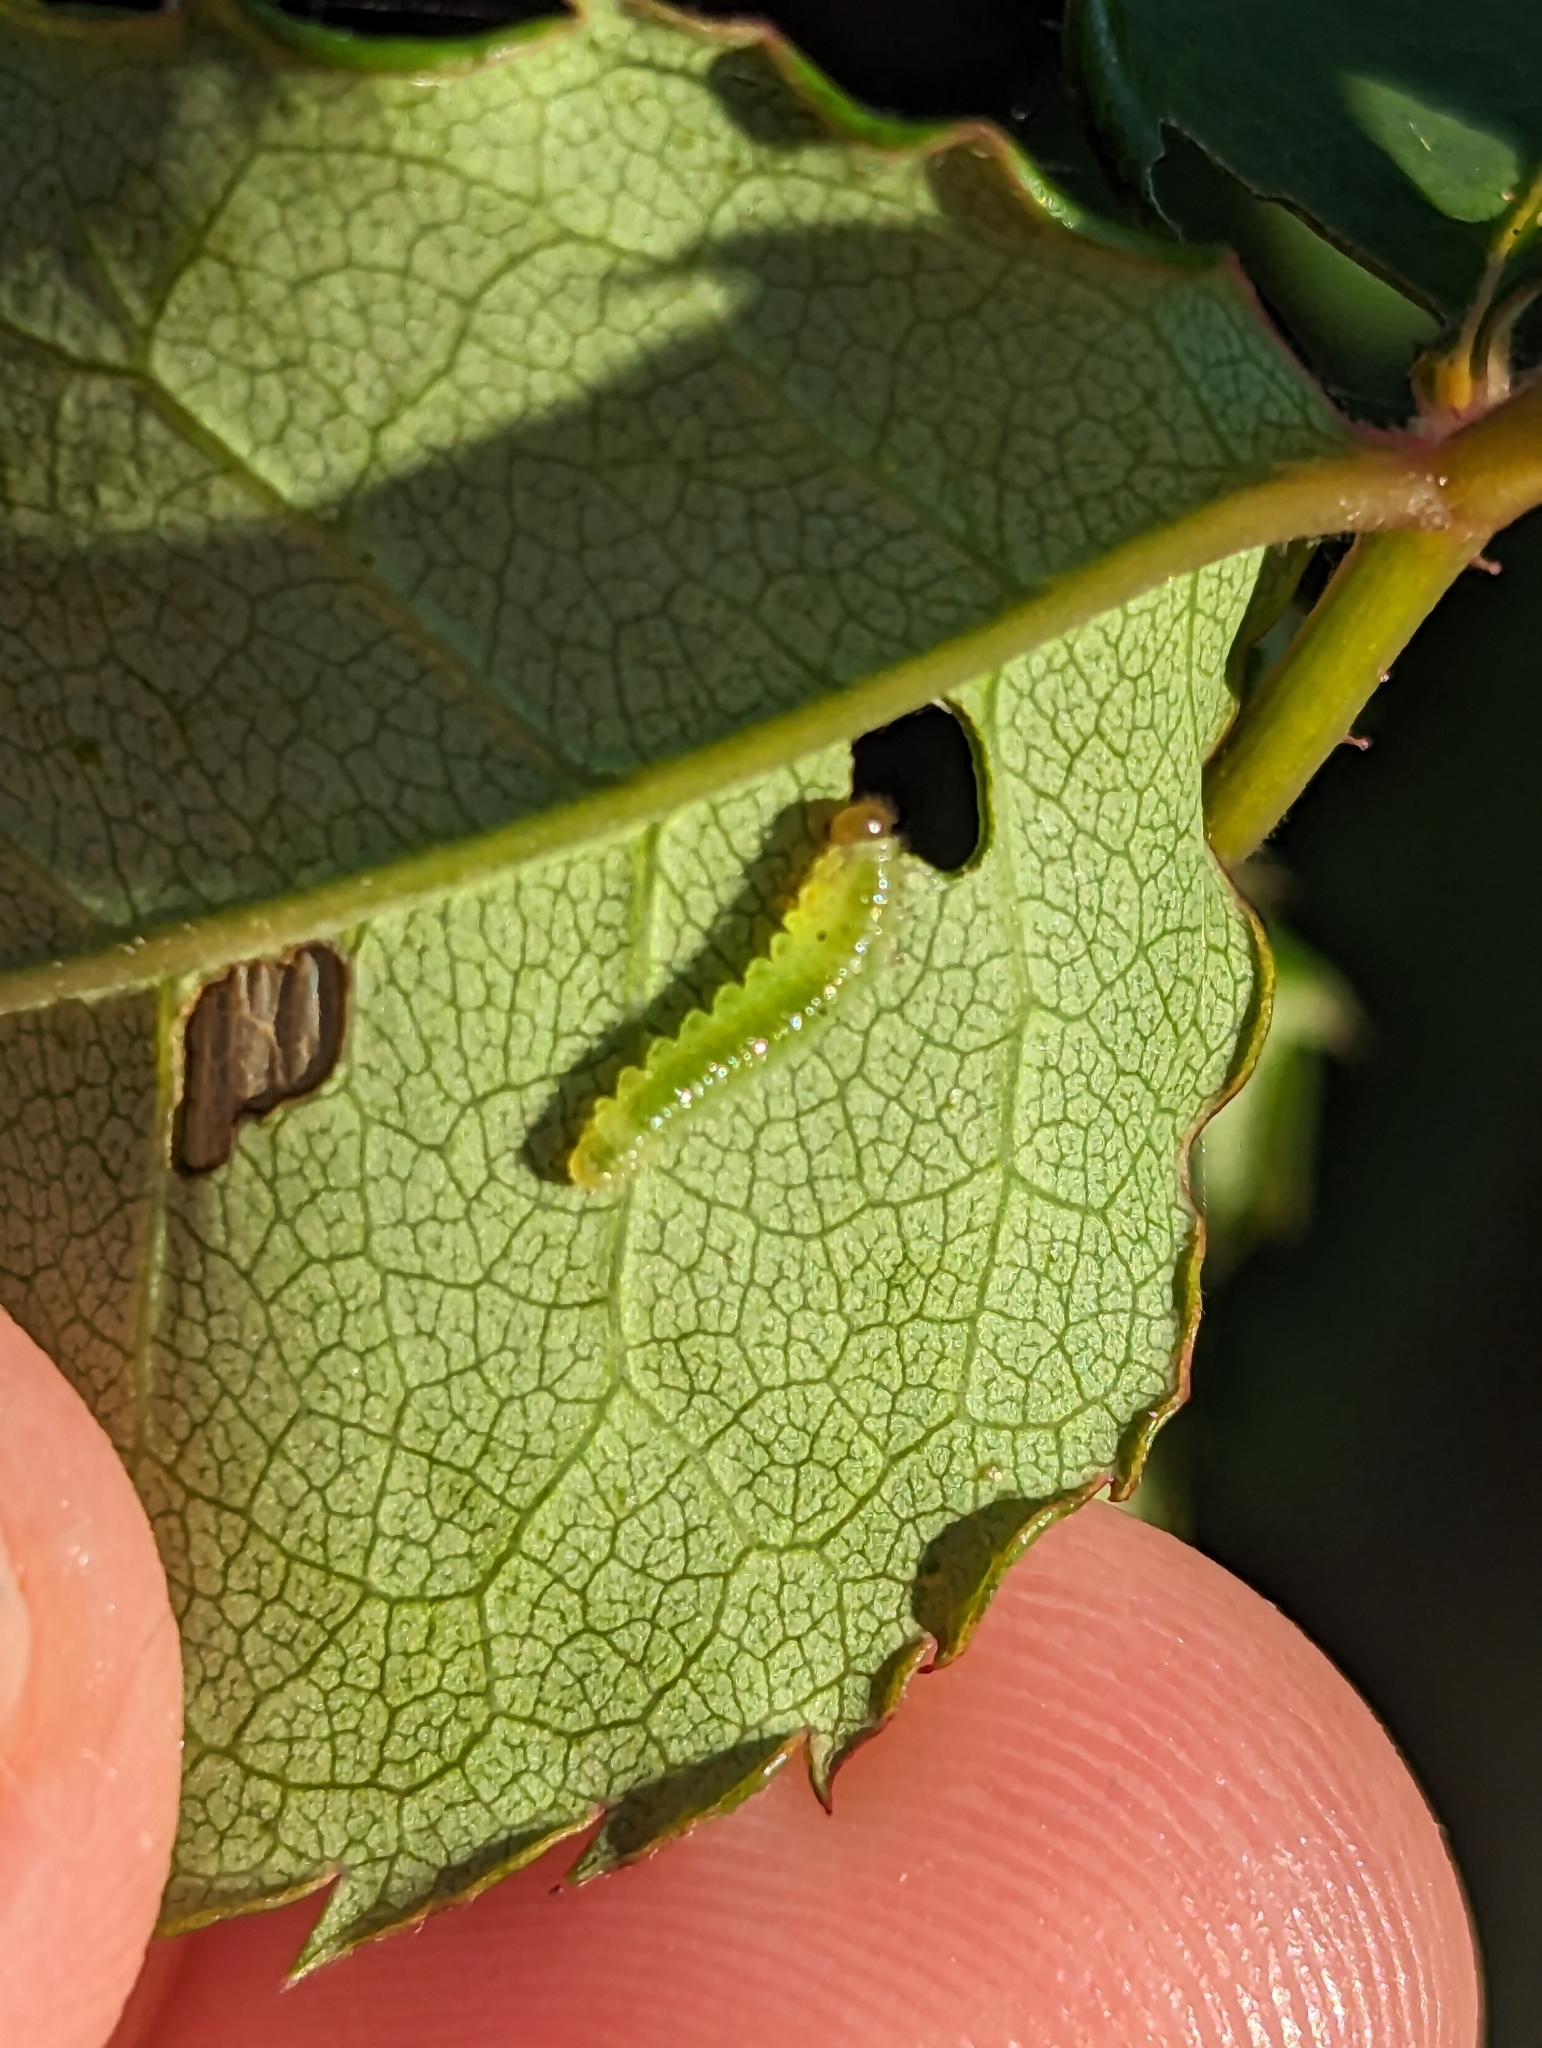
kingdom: Animalia
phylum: Arthropoda
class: Insecta
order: Hymenoptera
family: Tenthredinidae
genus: Cladius
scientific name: Cladius pectinicornis
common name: Sawfly
